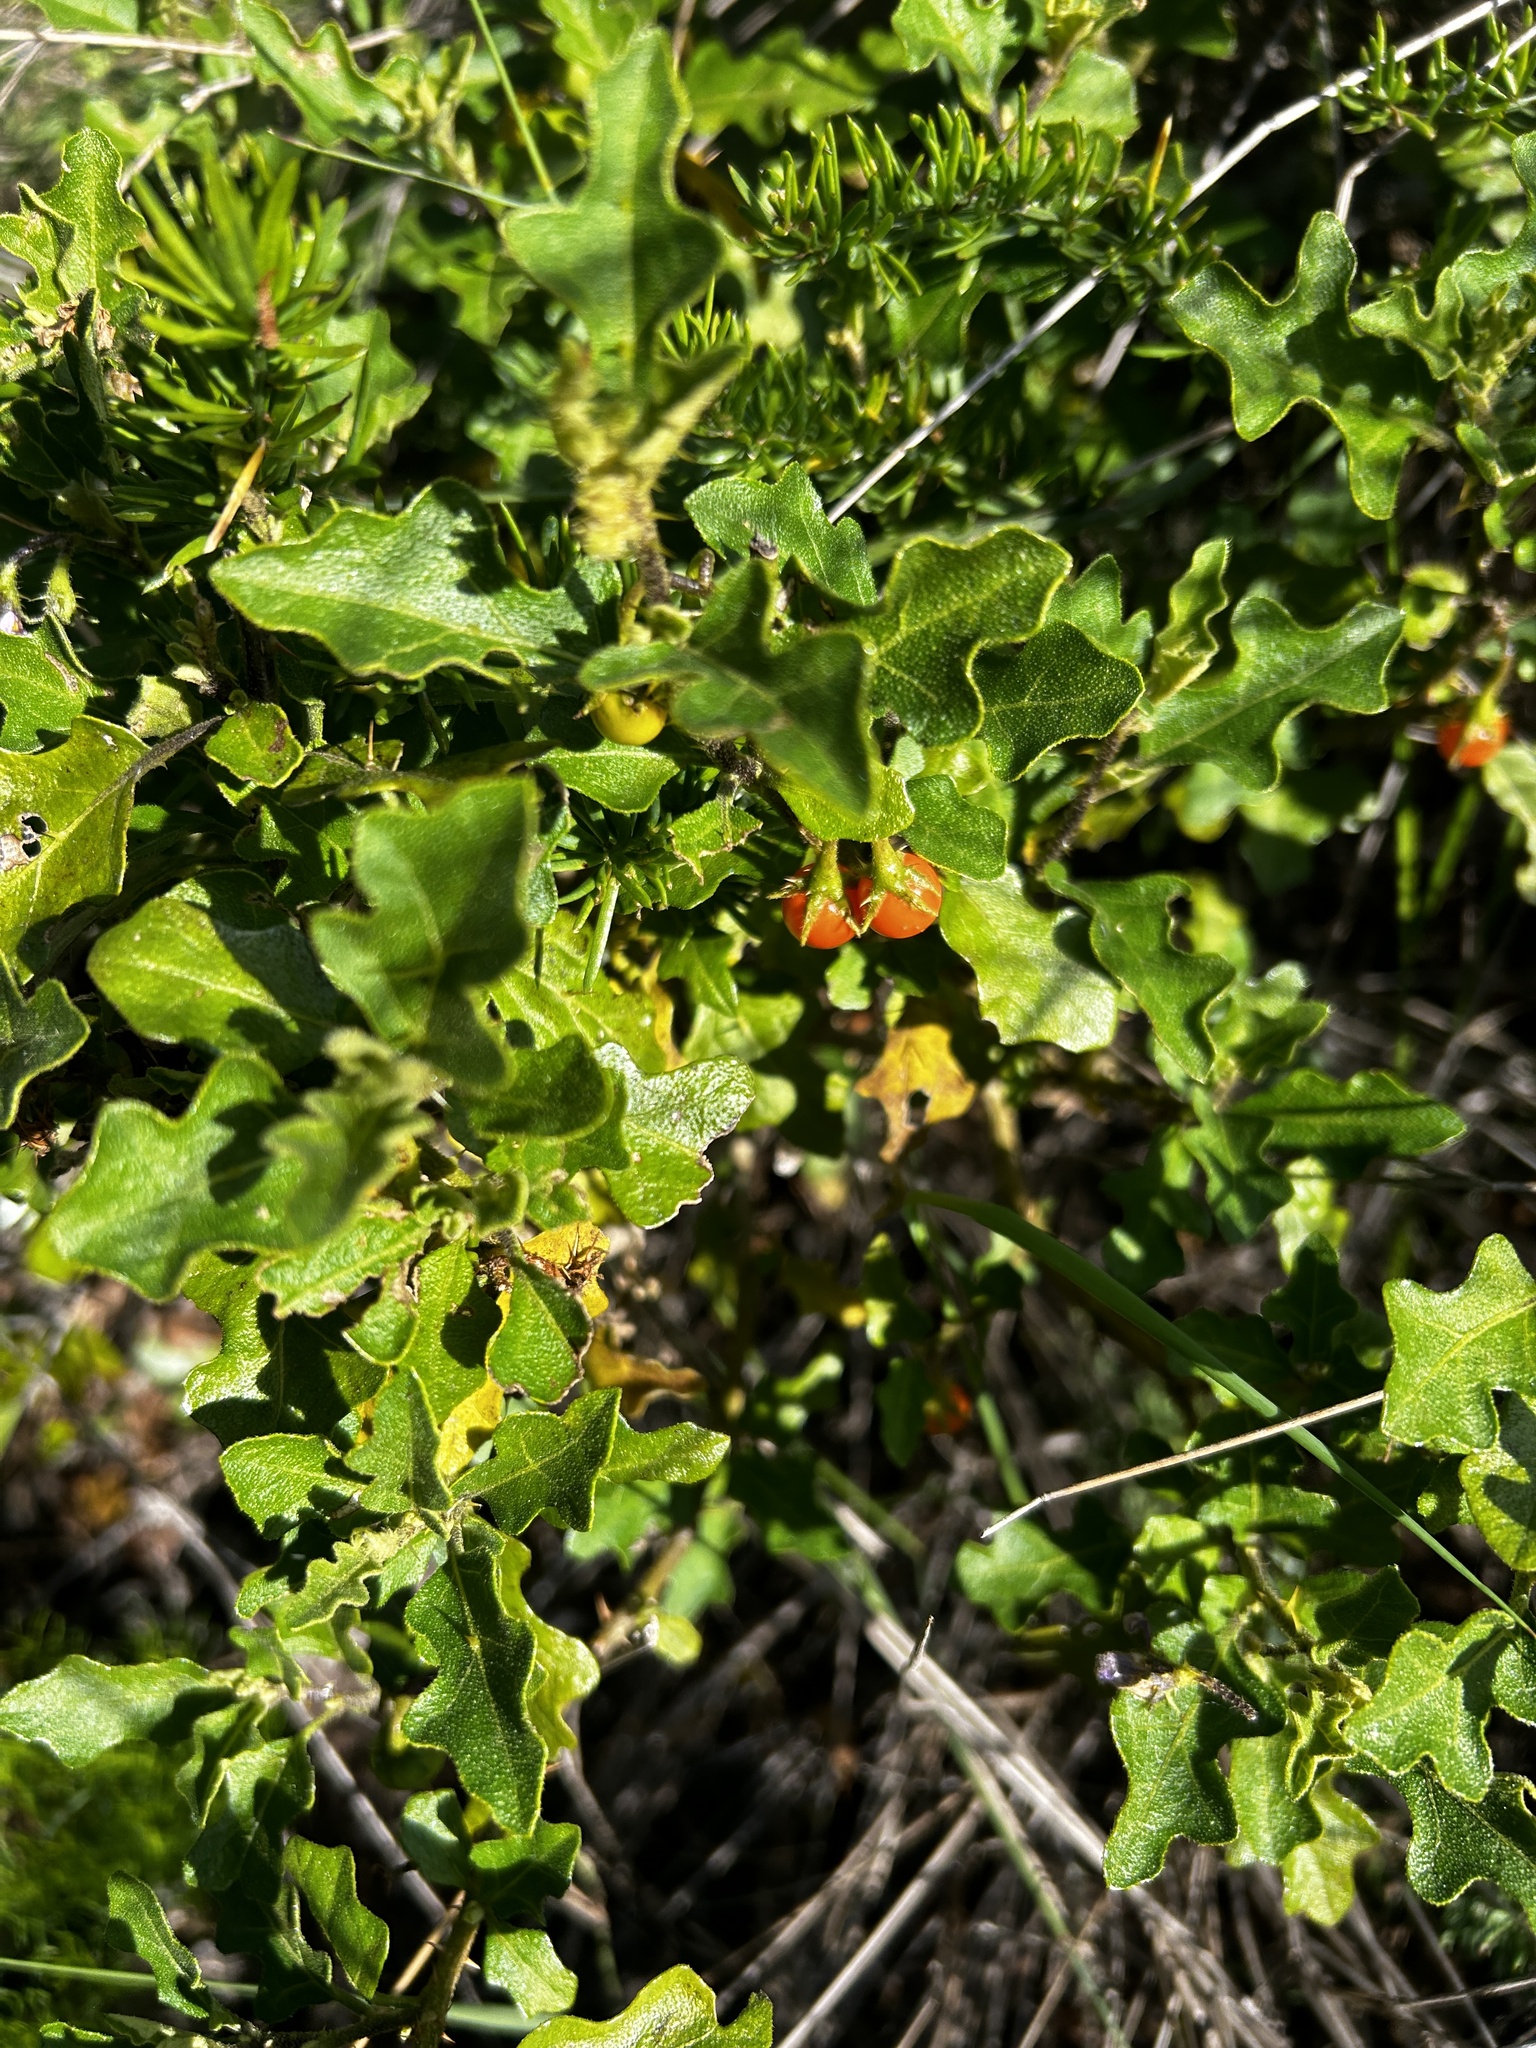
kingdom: Plantae
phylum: Tracheophyta
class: Magnoliopsida
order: Solanales
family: Solanaceae
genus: Solanum
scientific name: Solanum rubetorum
